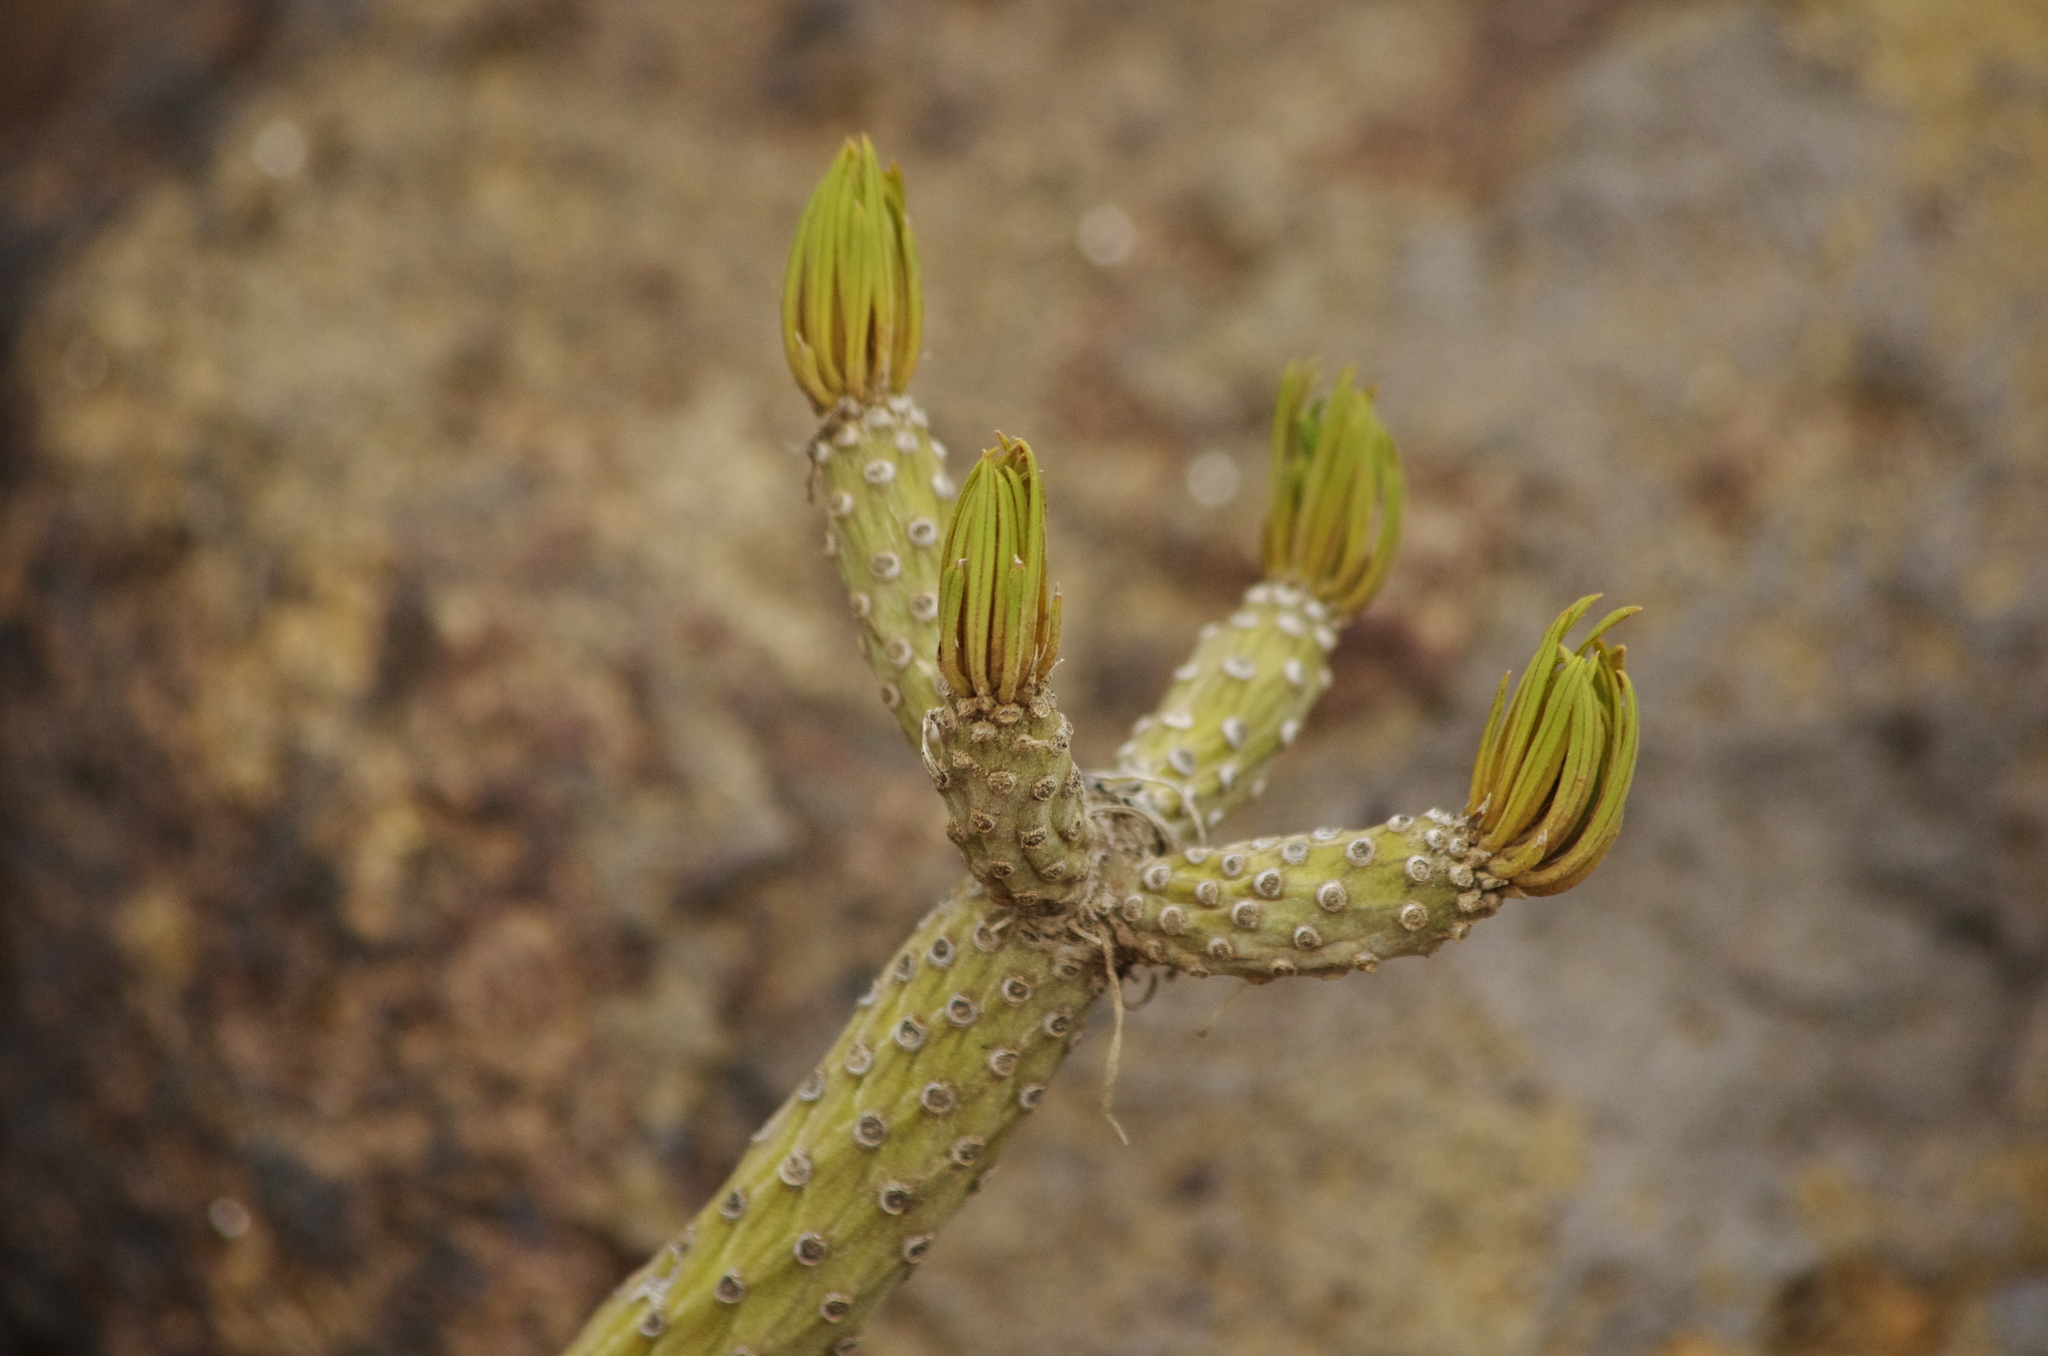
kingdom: Plantae
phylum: Tracheophyta
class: Magnoliopsida
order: Asterales
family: Asteraceae
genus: Kleinia
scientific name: Kleinia neriifolia
